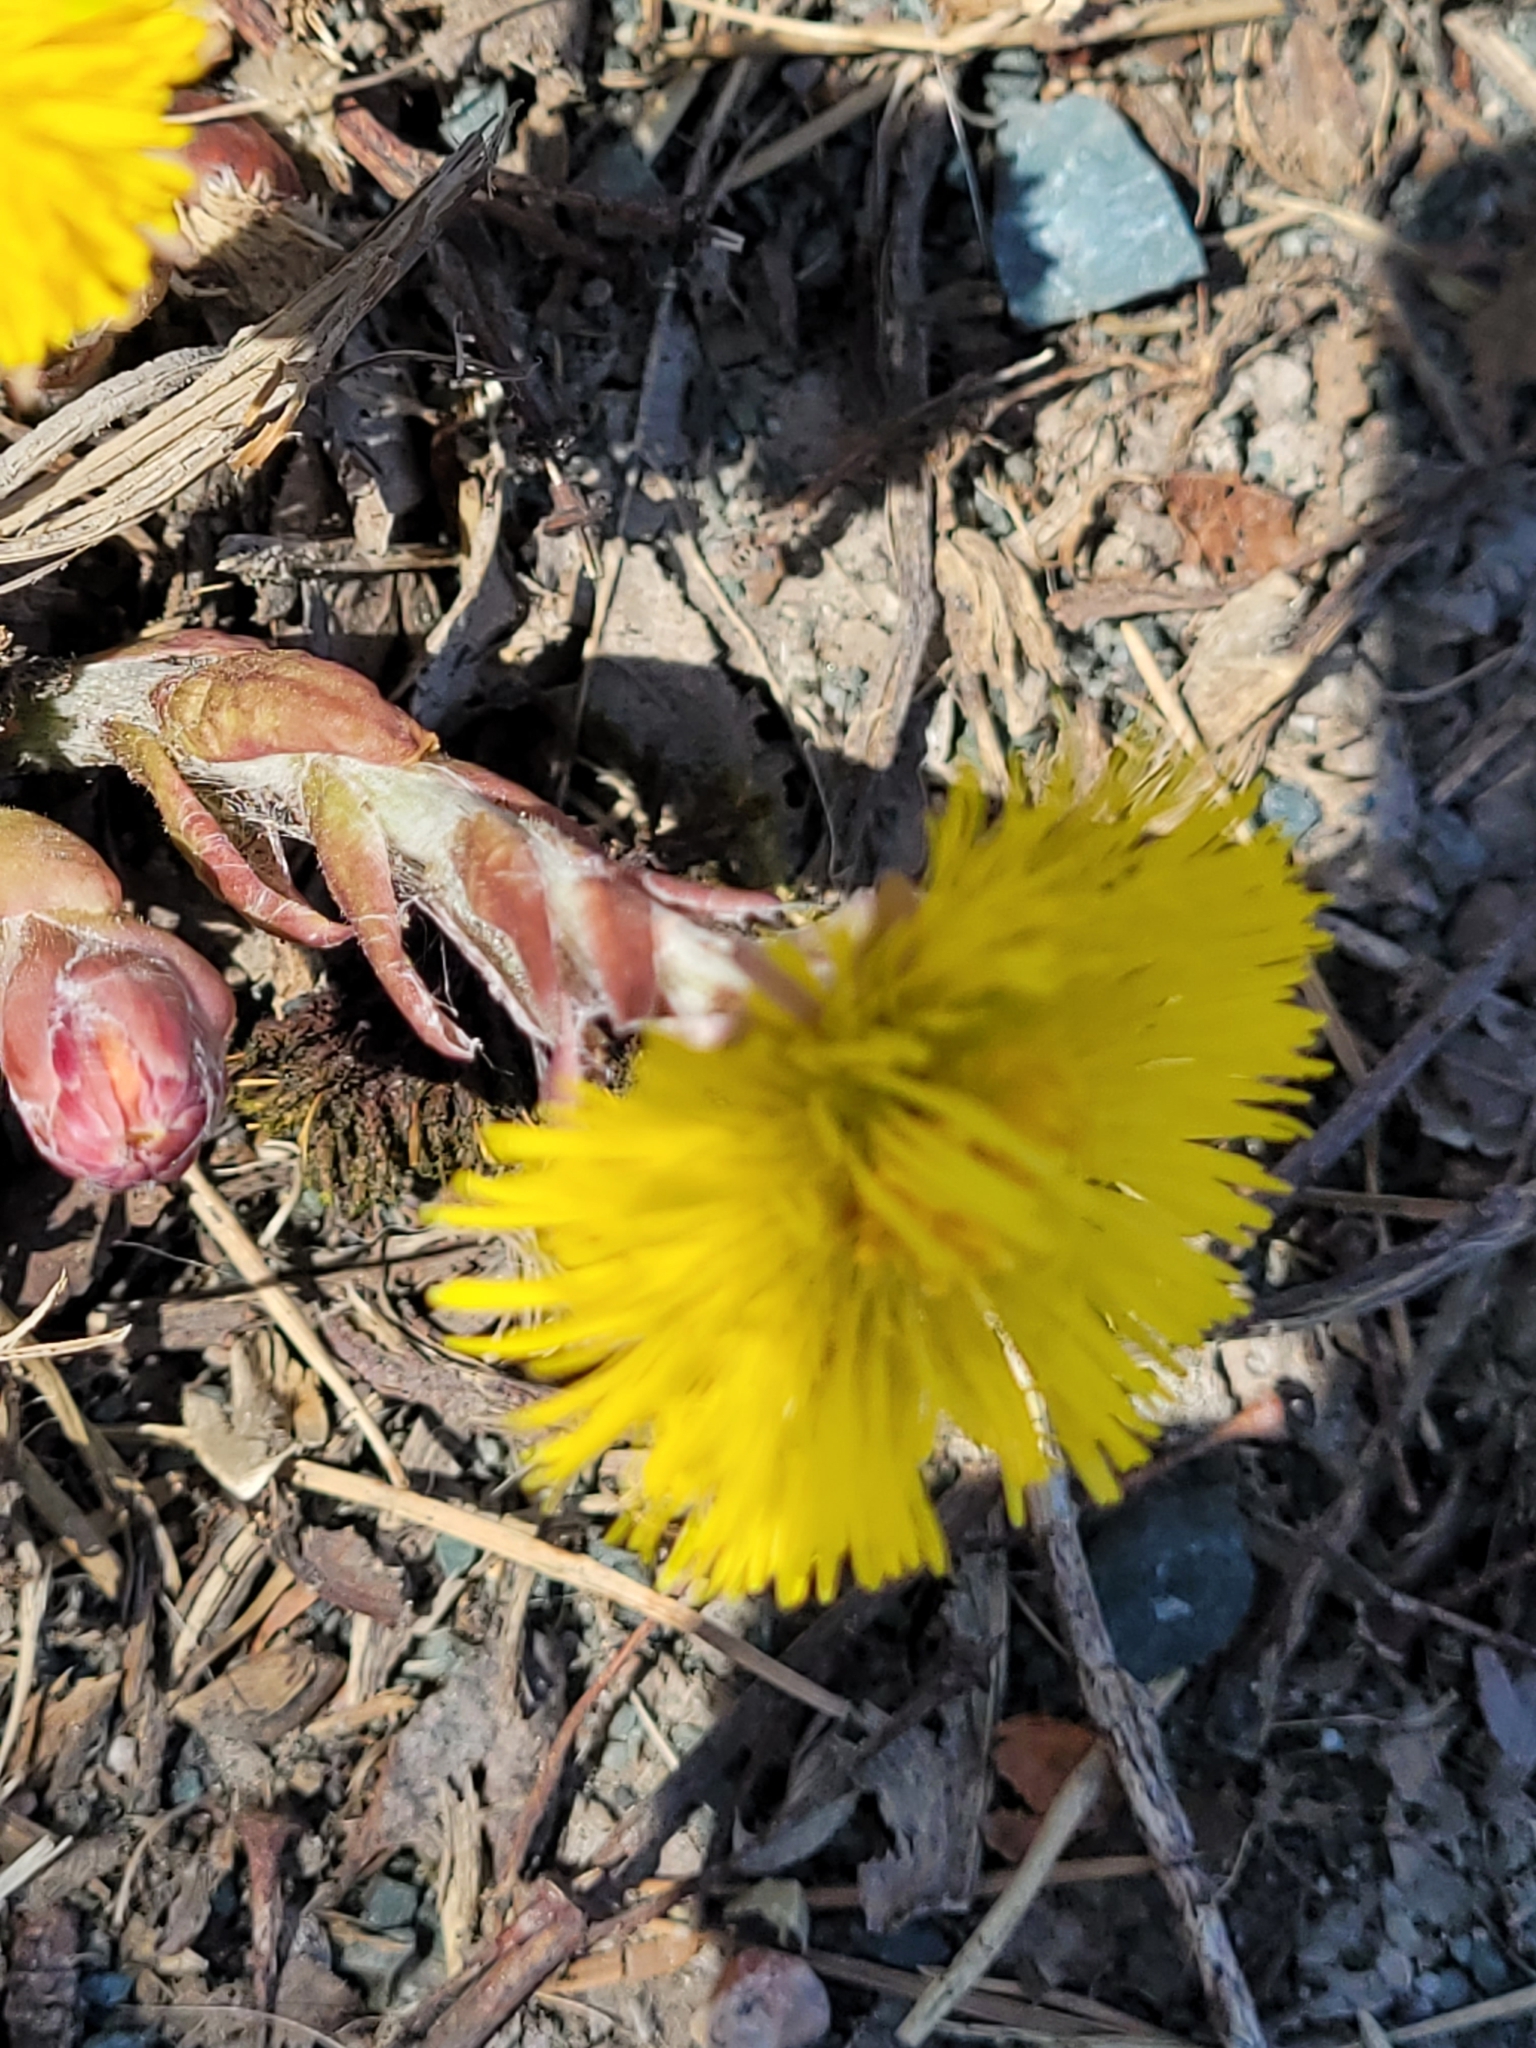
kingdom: Plantae
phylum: Tracheophyta
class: Magnoliopsida
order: Asterales
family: Asteraceae
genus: Tussilago
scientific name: Tussilago farfara
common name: Coltsfoot
